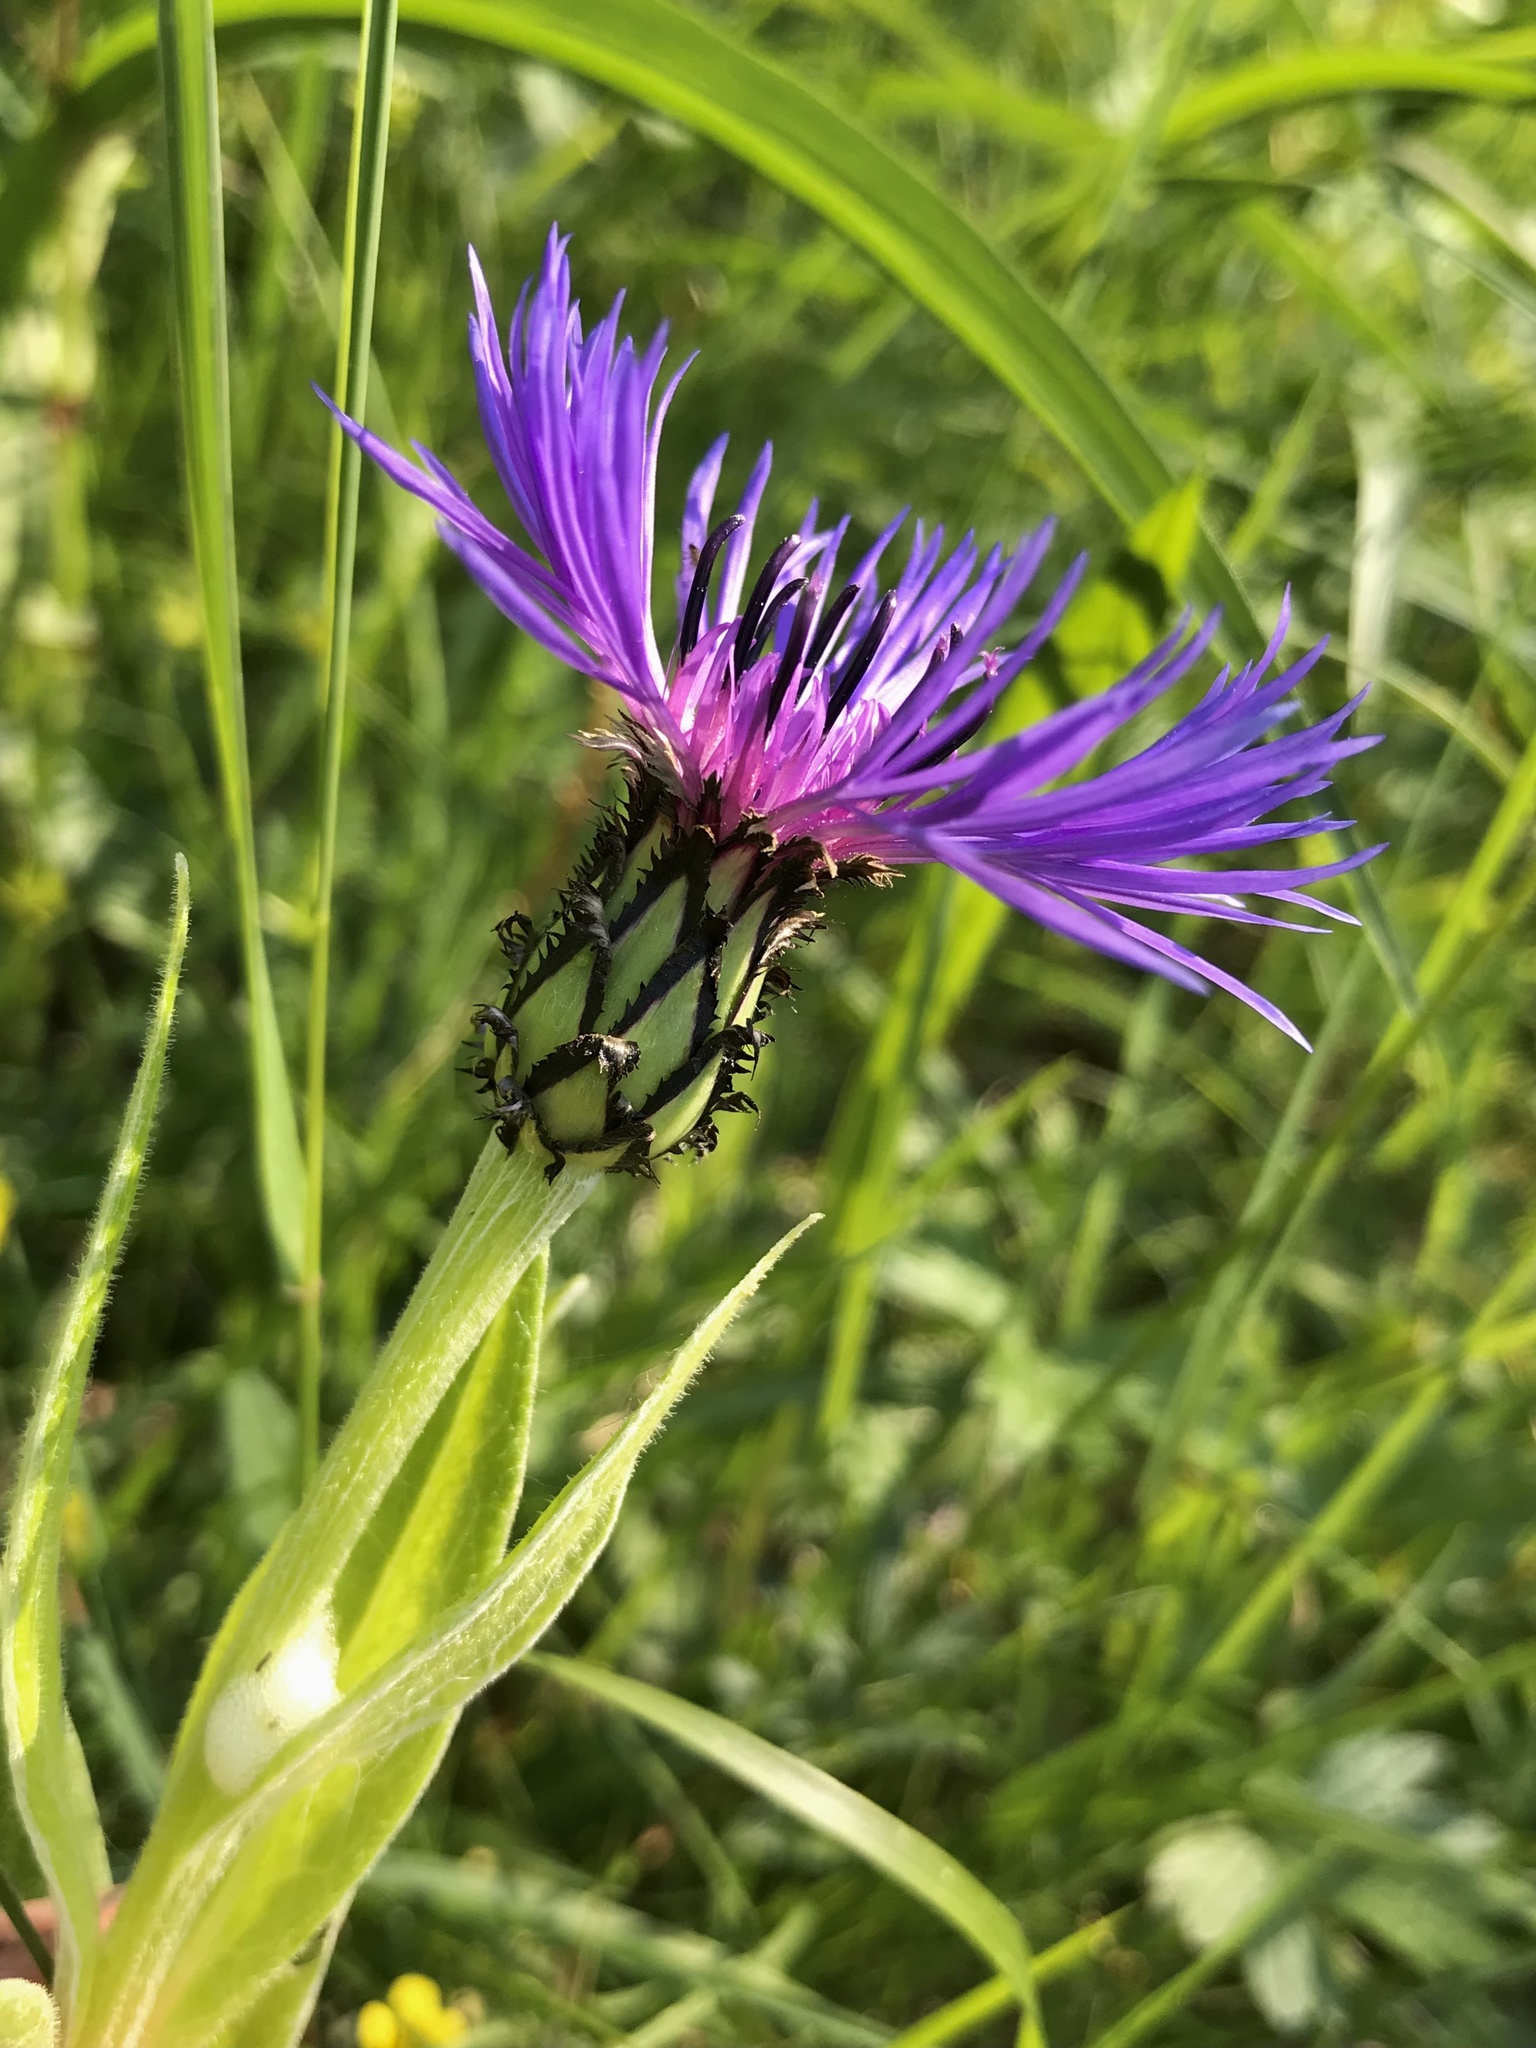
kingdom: Plantae
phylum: Tracheophyta
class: Magnoliopsida
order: Asterales
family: Asteraceae
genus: Centaurea
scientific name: Centaurea montana
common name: Perennial cornflower
